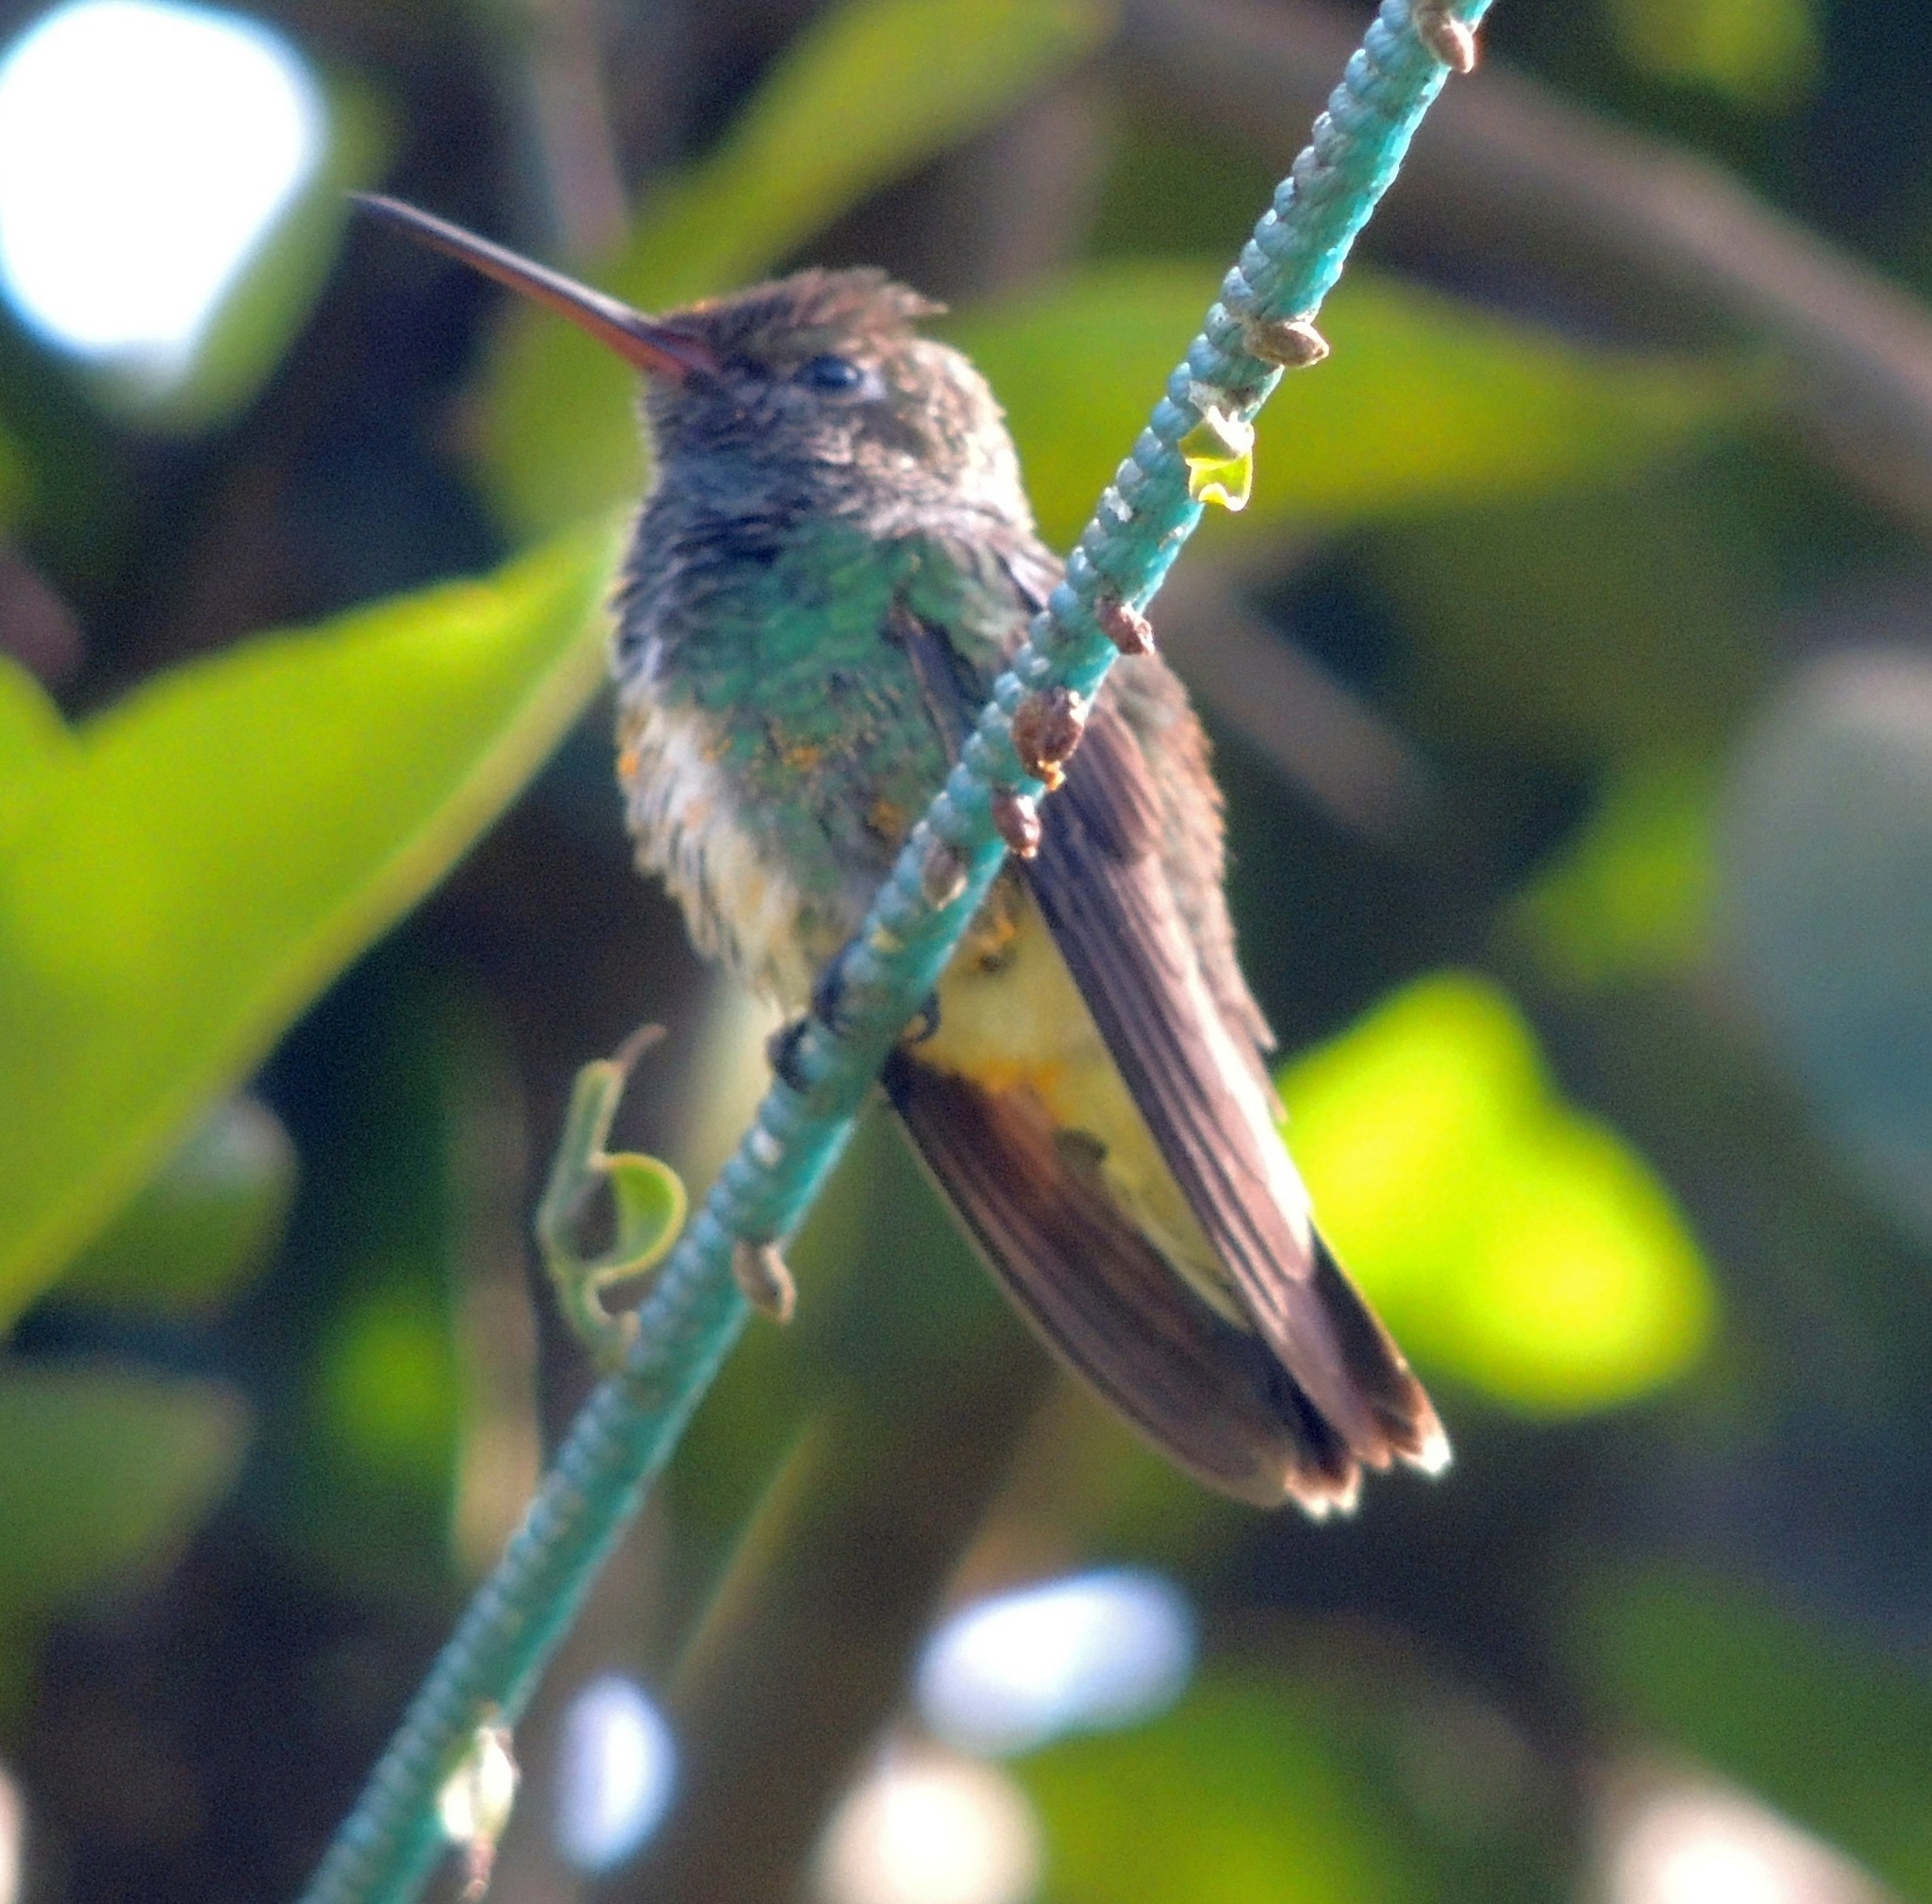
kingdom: Animalia
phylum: Chordata
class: Aves
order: Apodiformes
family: Trochilidae
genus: Chionomesa
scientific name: Chionomesa fimbriata
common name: Glittering-throated emerald
